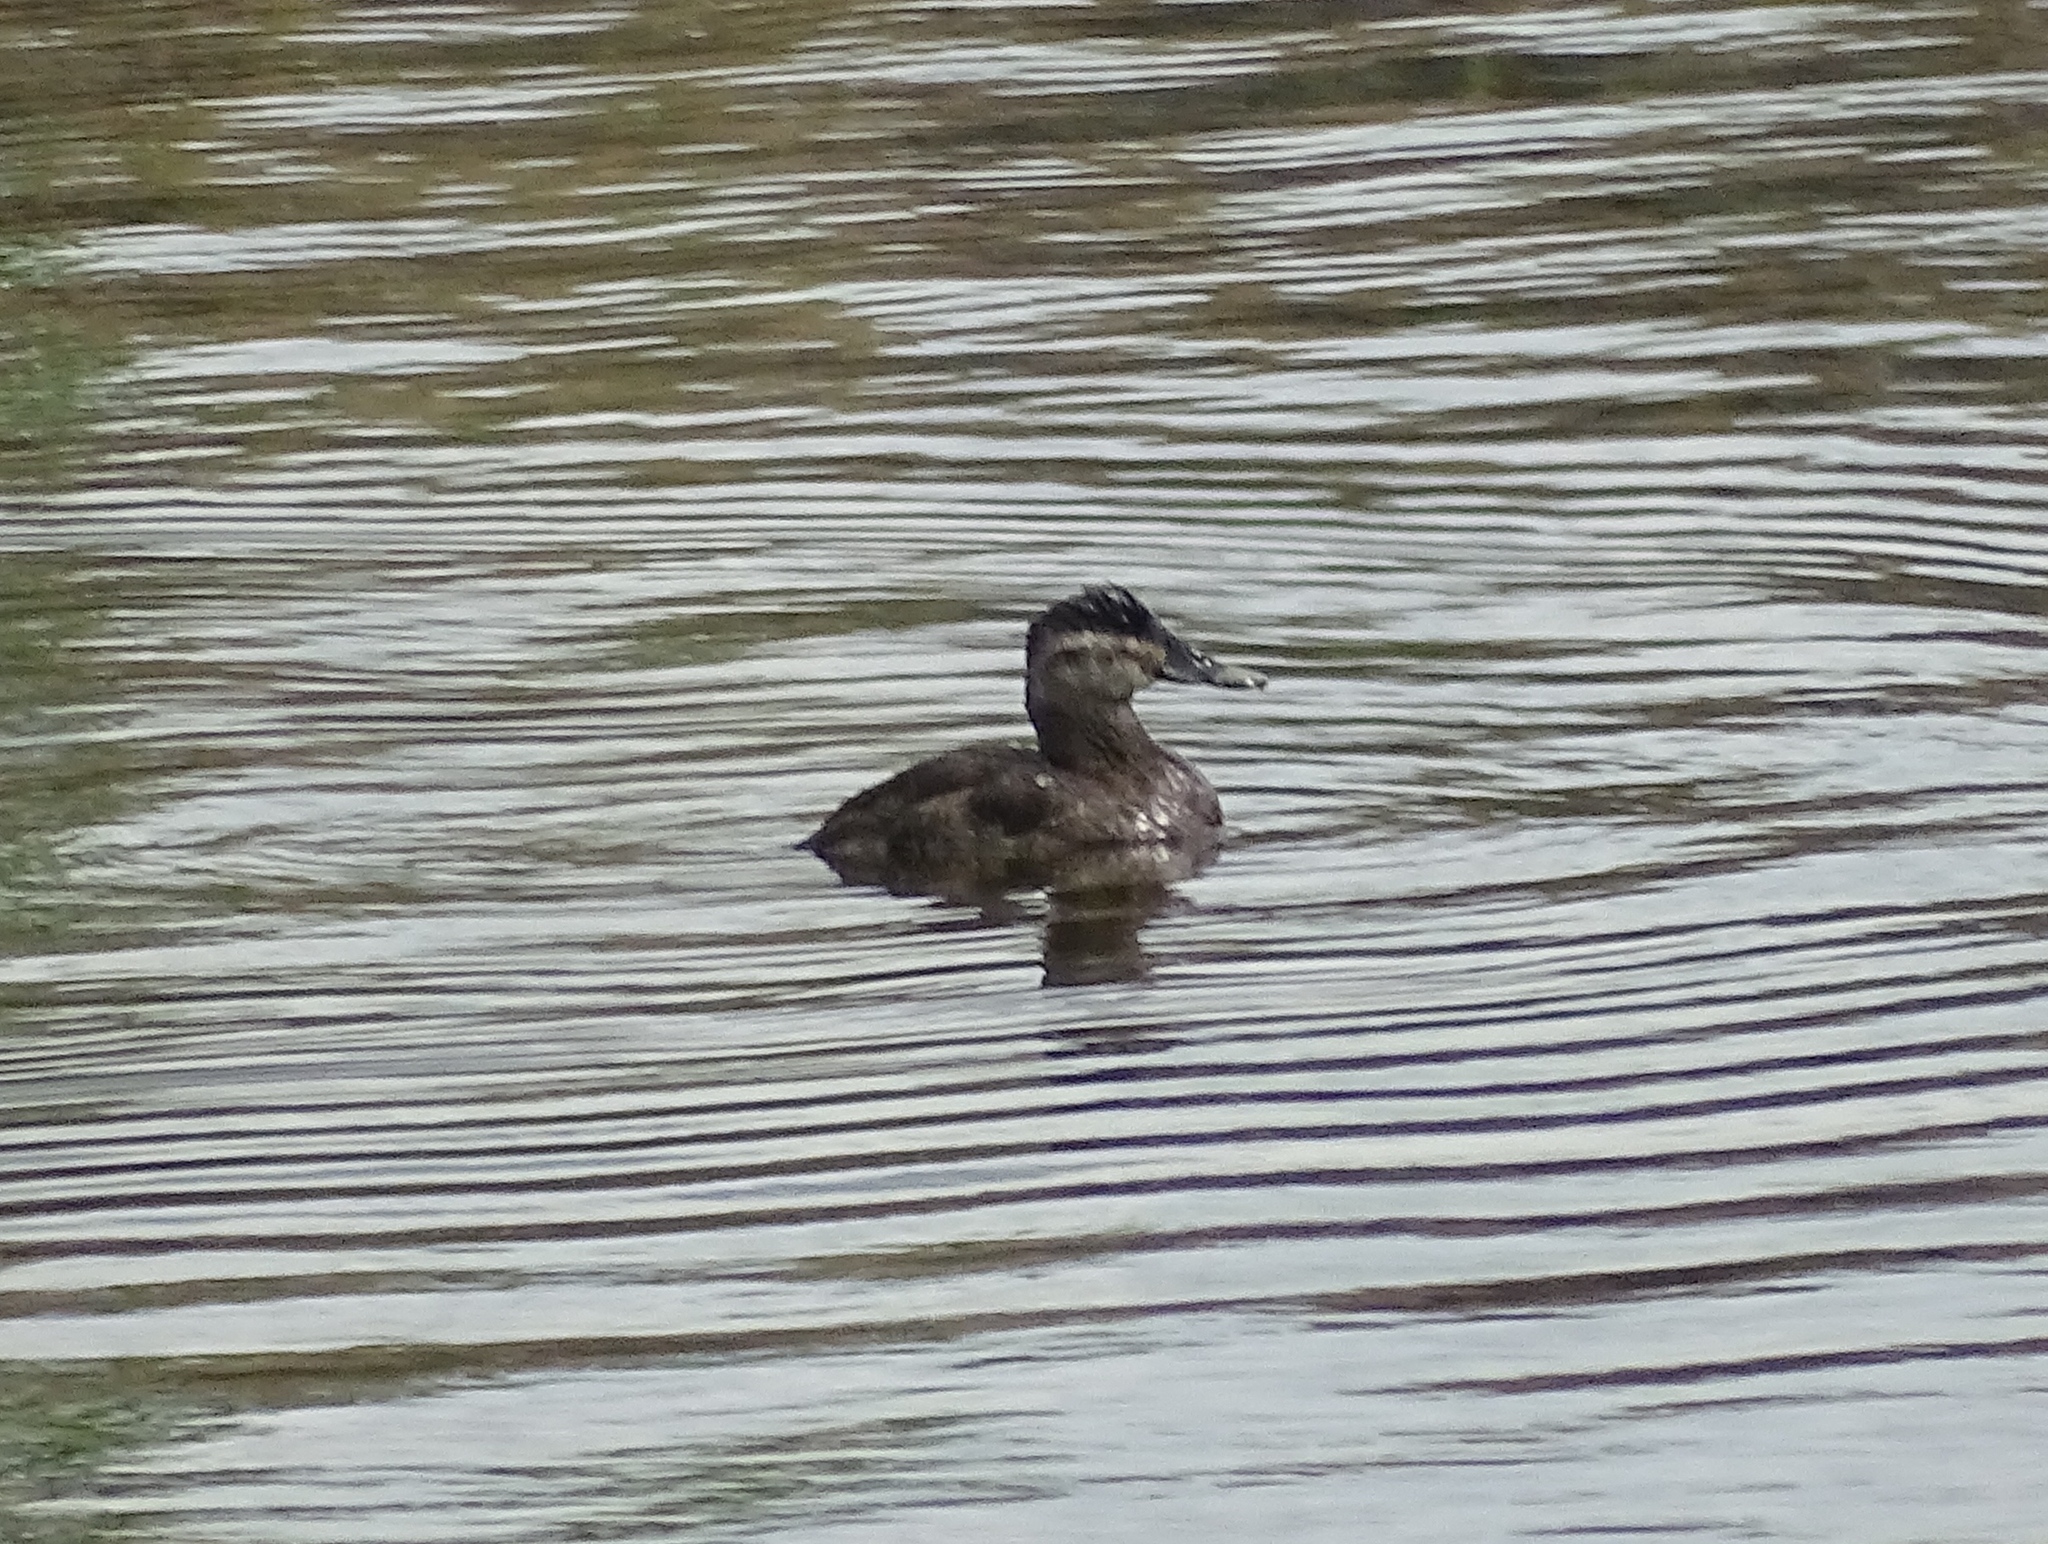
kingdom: Animalia
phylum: Chordata
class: Aves
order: Anseriformes
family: Anatidae
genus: Oxyura
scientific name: Oxyura jamaicensis
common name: Ruddy duck
